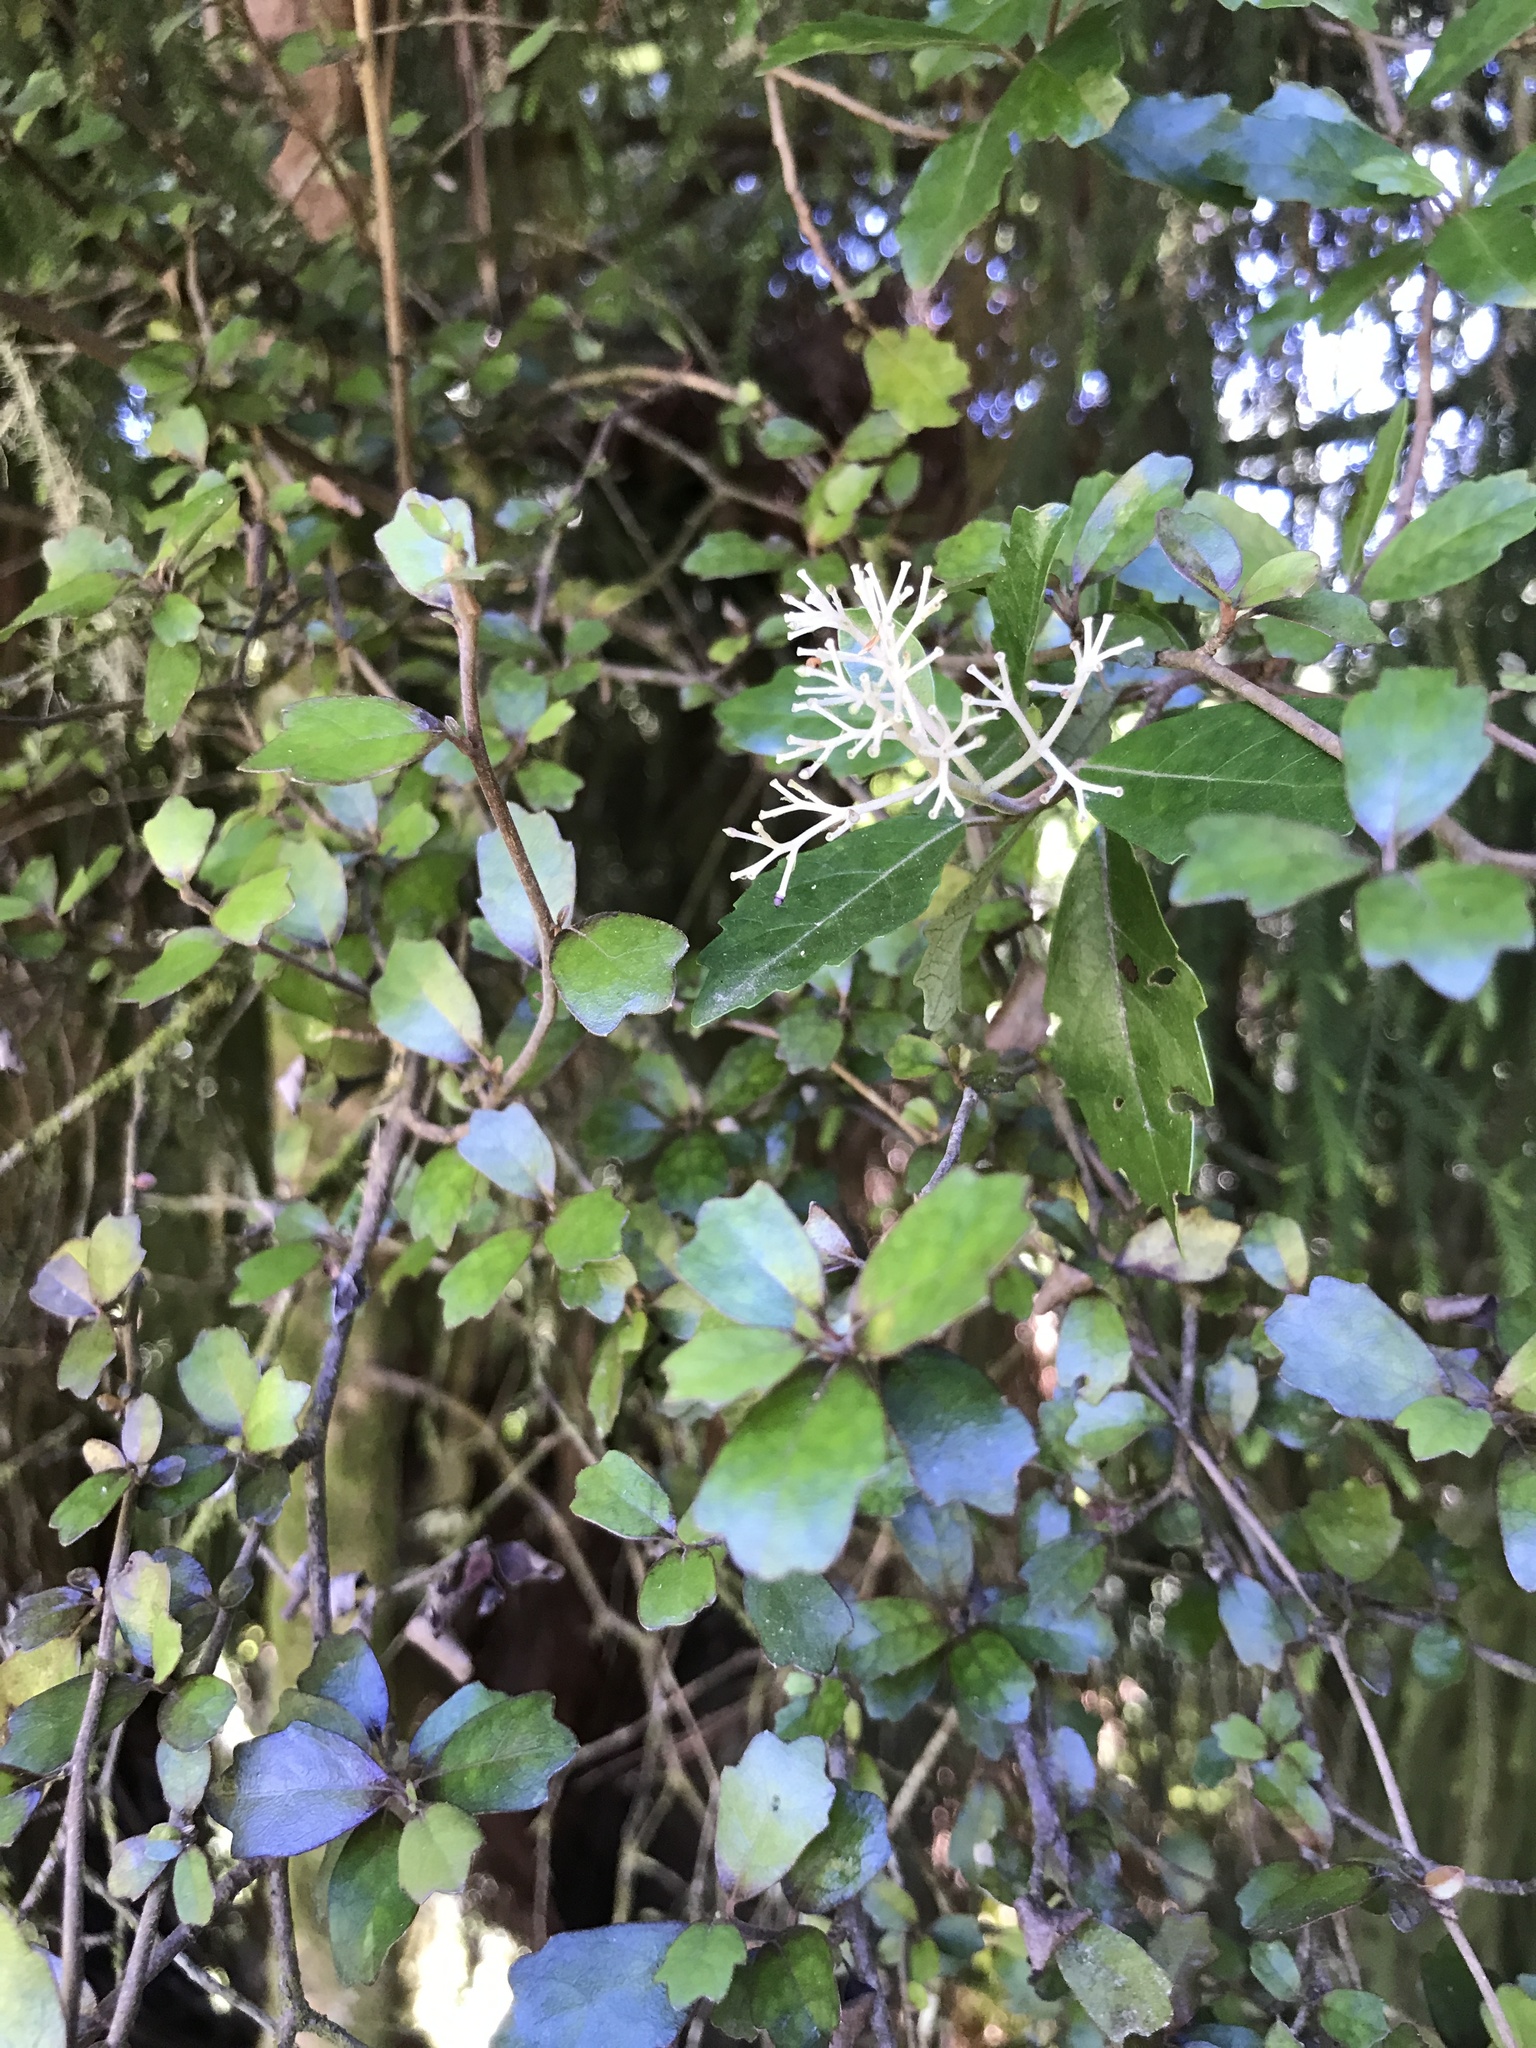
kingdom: Plantae
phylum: Tracheophyta
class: Magnoliopsida
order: Apiales
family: Pennantiaceae
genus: Pennantia
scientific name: Pennantia corymbosa
